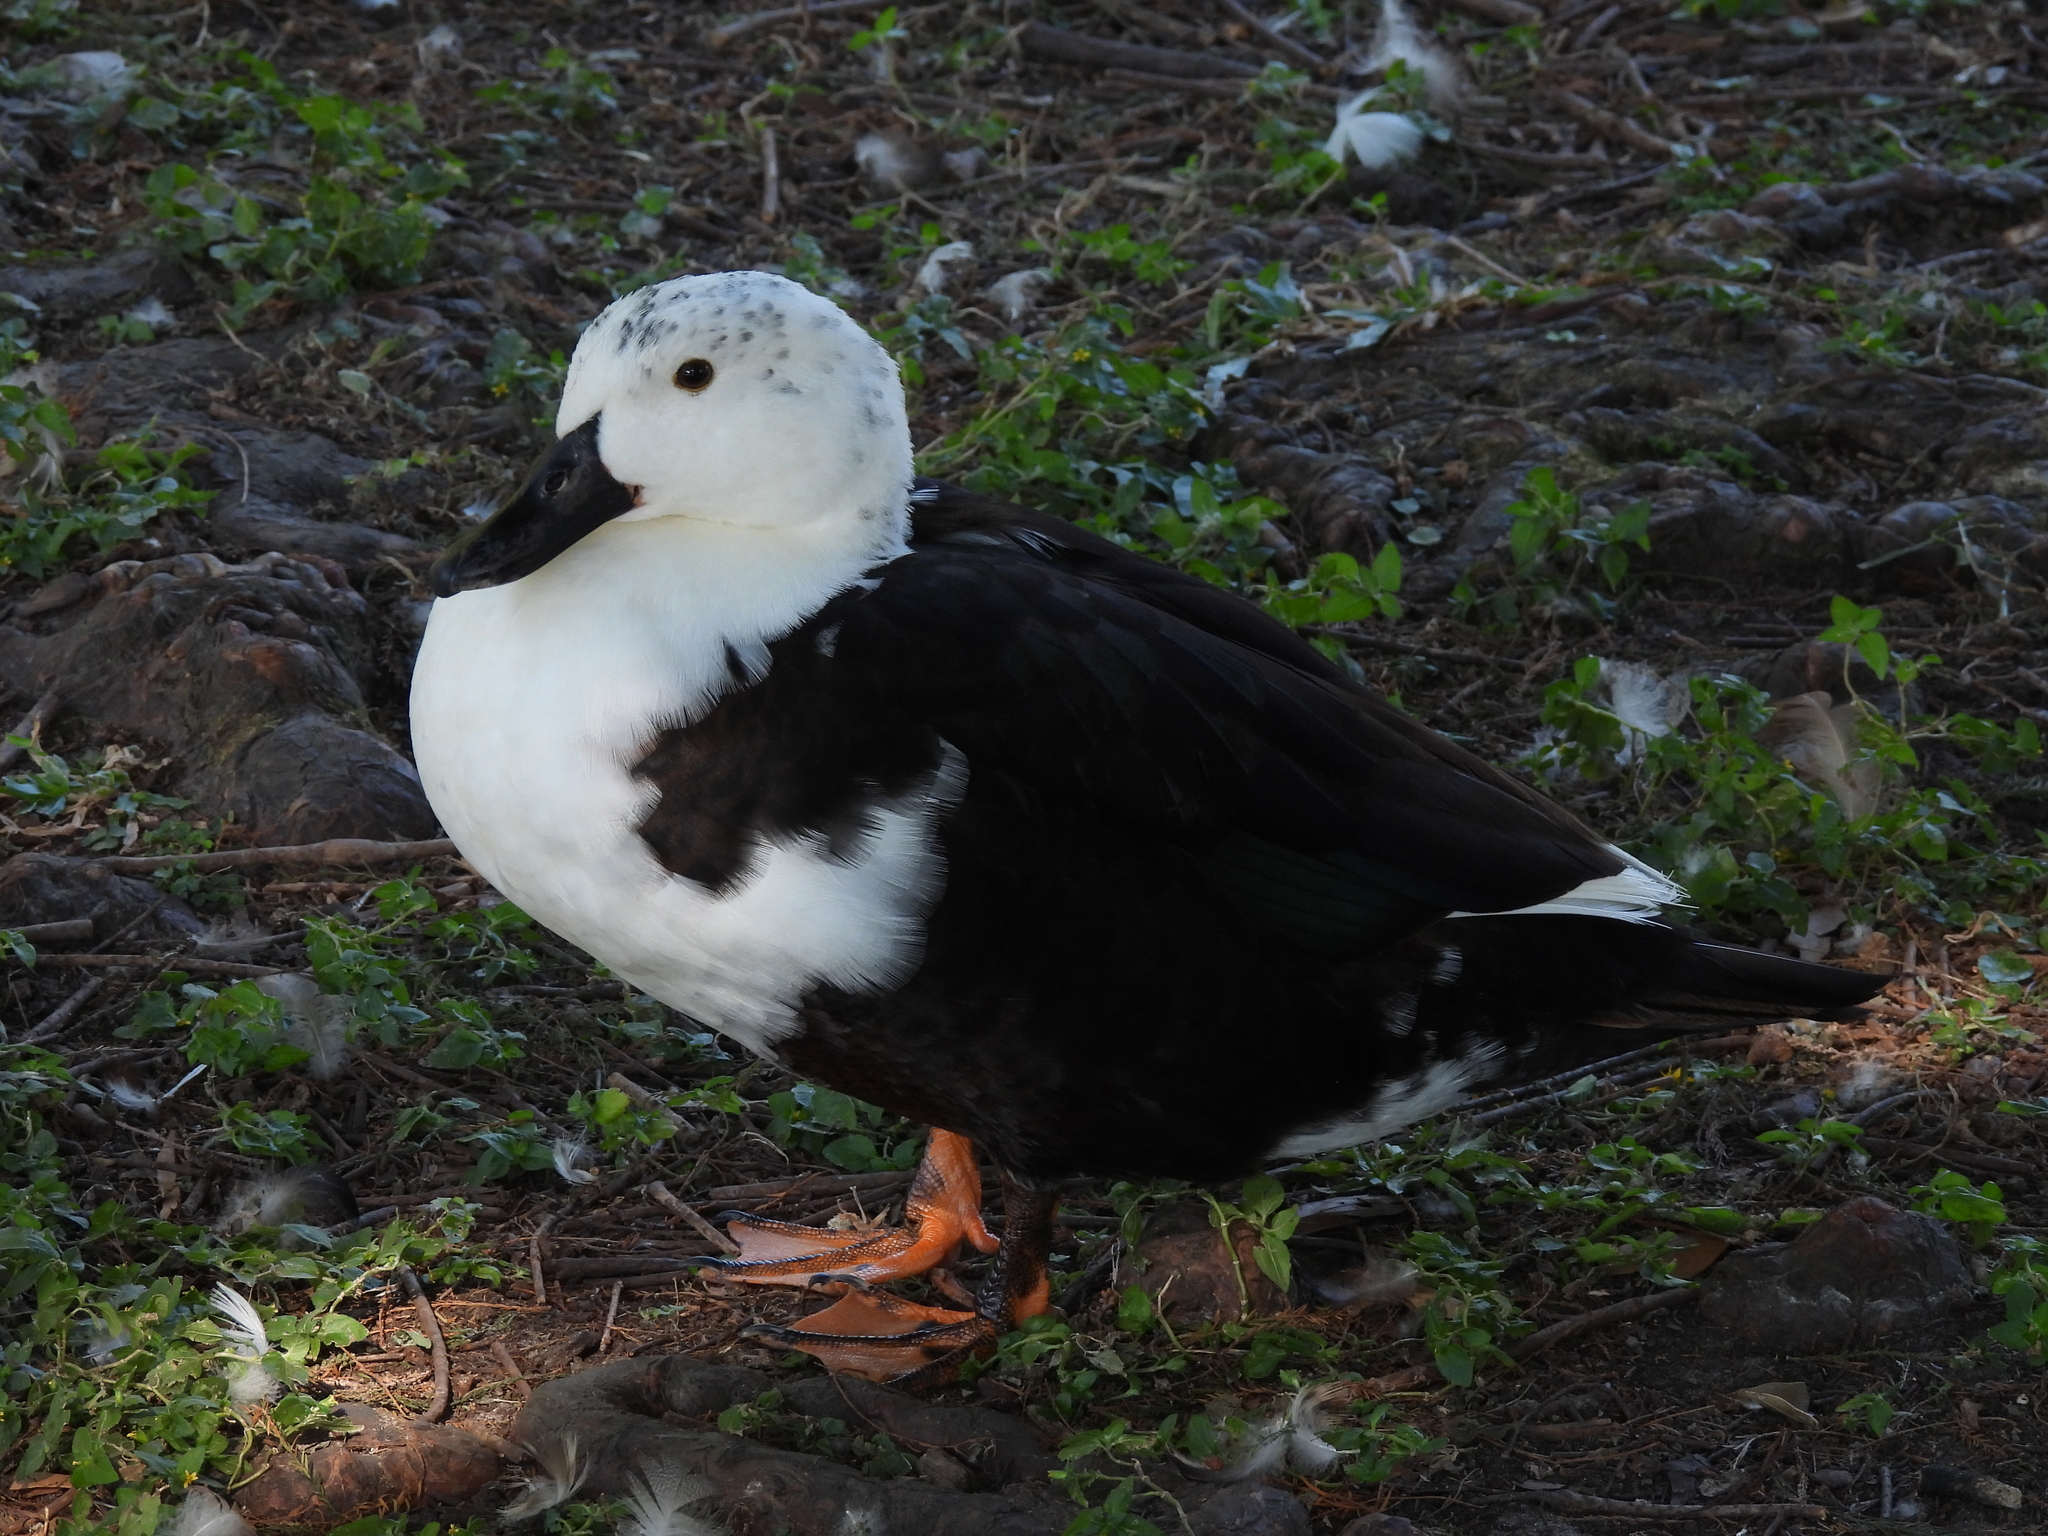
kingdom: Animalia
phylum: Chordata
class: Aves
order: Anseriformes
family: Anatidae
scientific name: Anatidae
